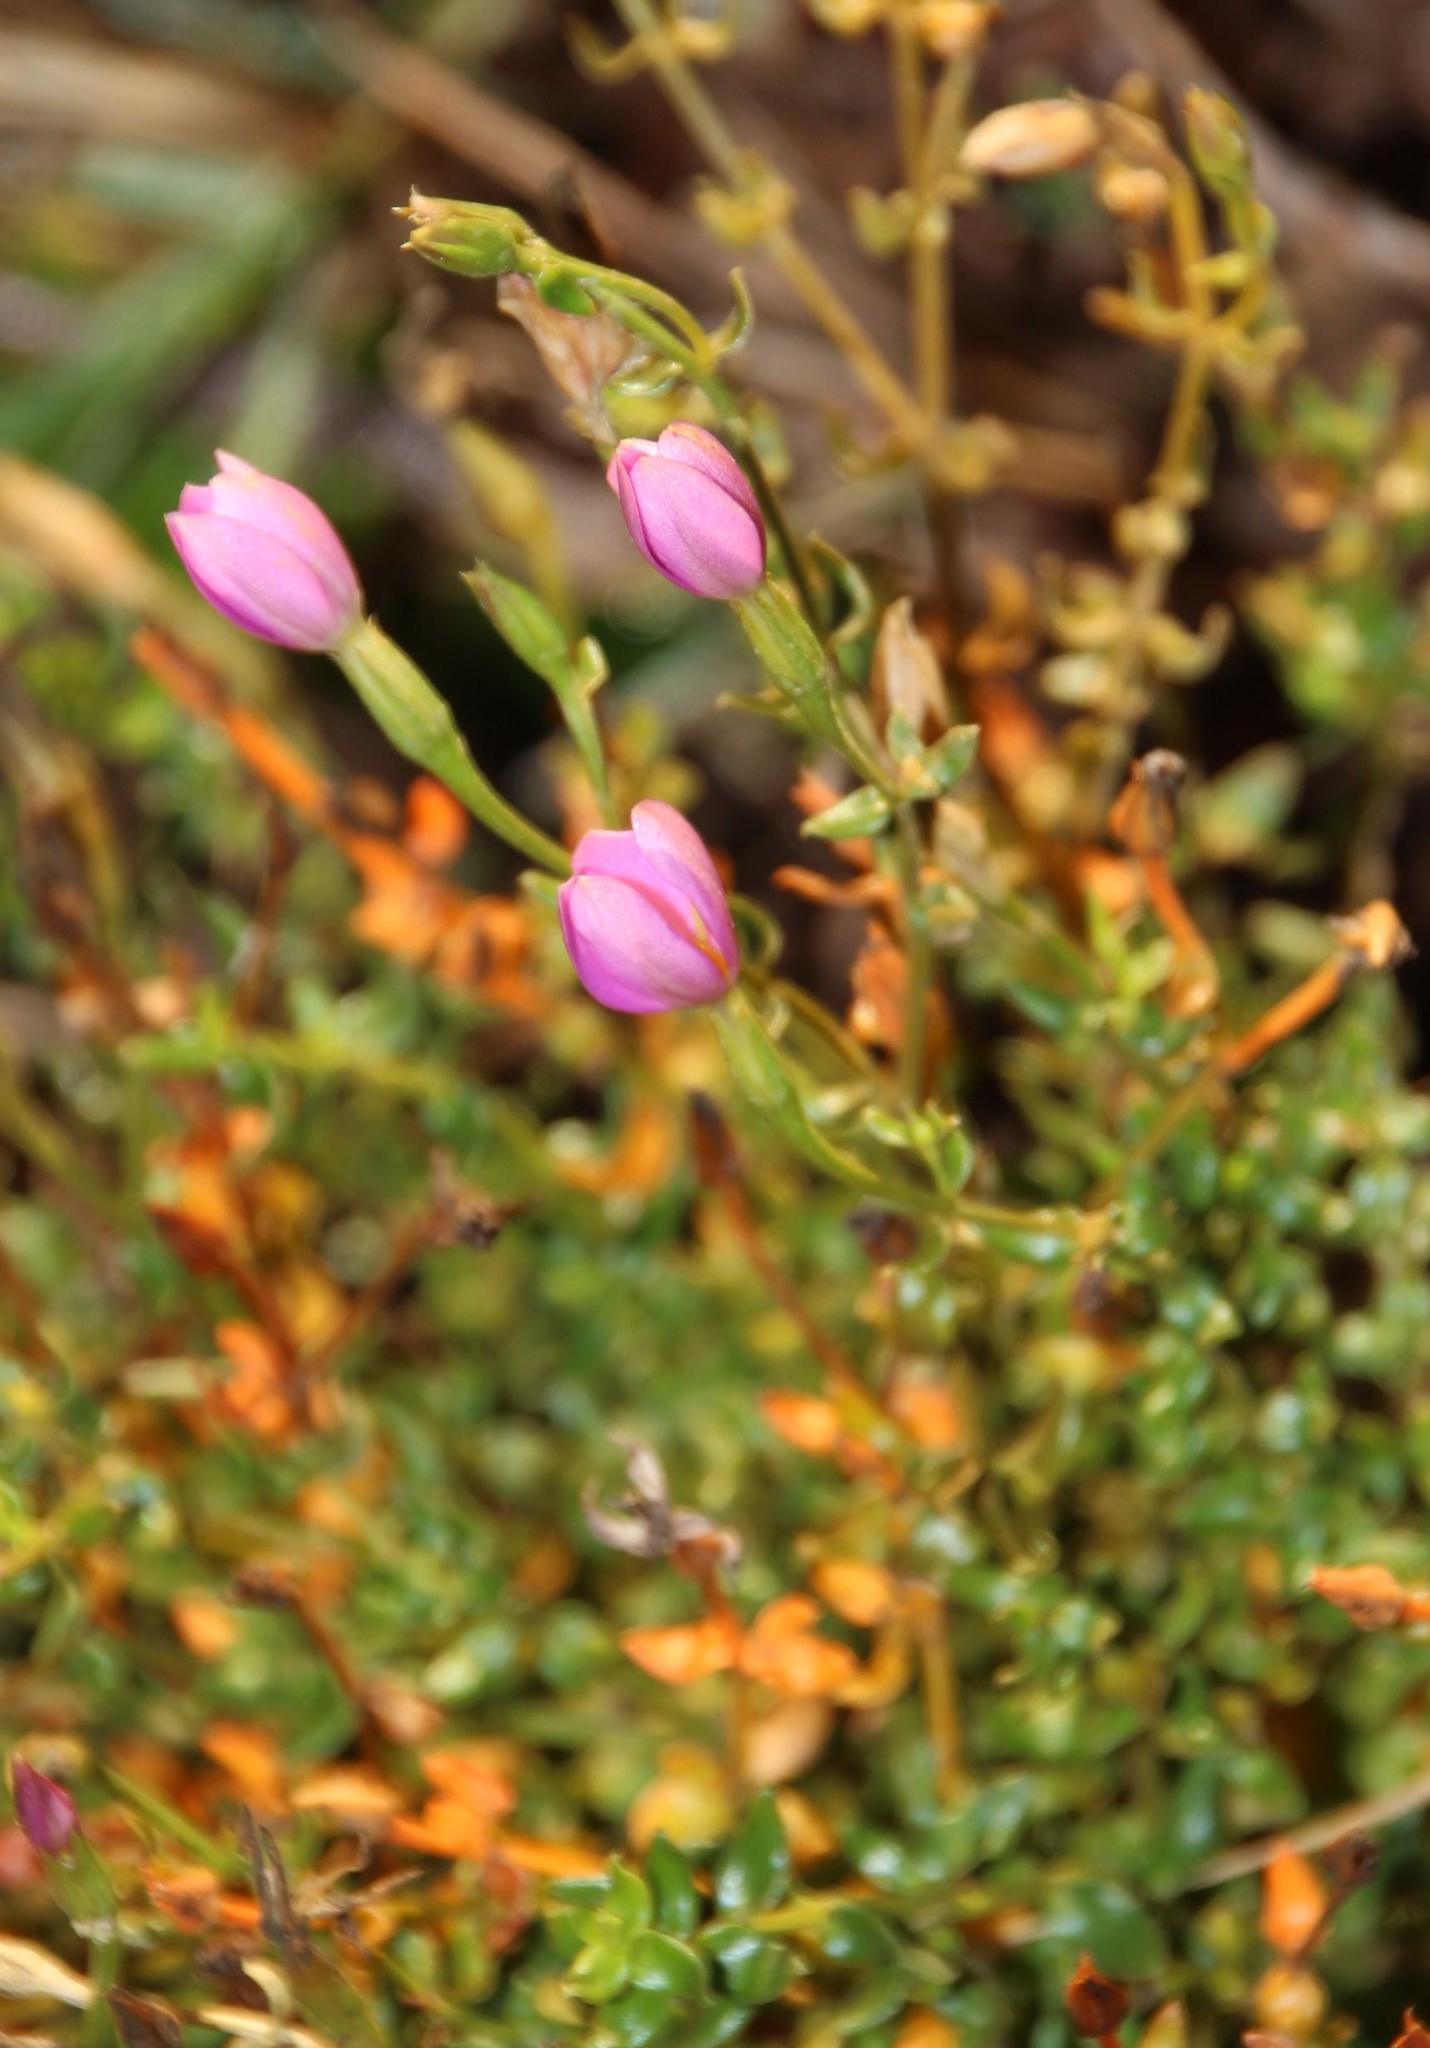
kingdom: Plantae
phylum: Tracheophyta
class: Magnoliopsida
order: Gentianales
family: Gentianaceae
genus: Chironia
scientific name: Chironia baccifera
